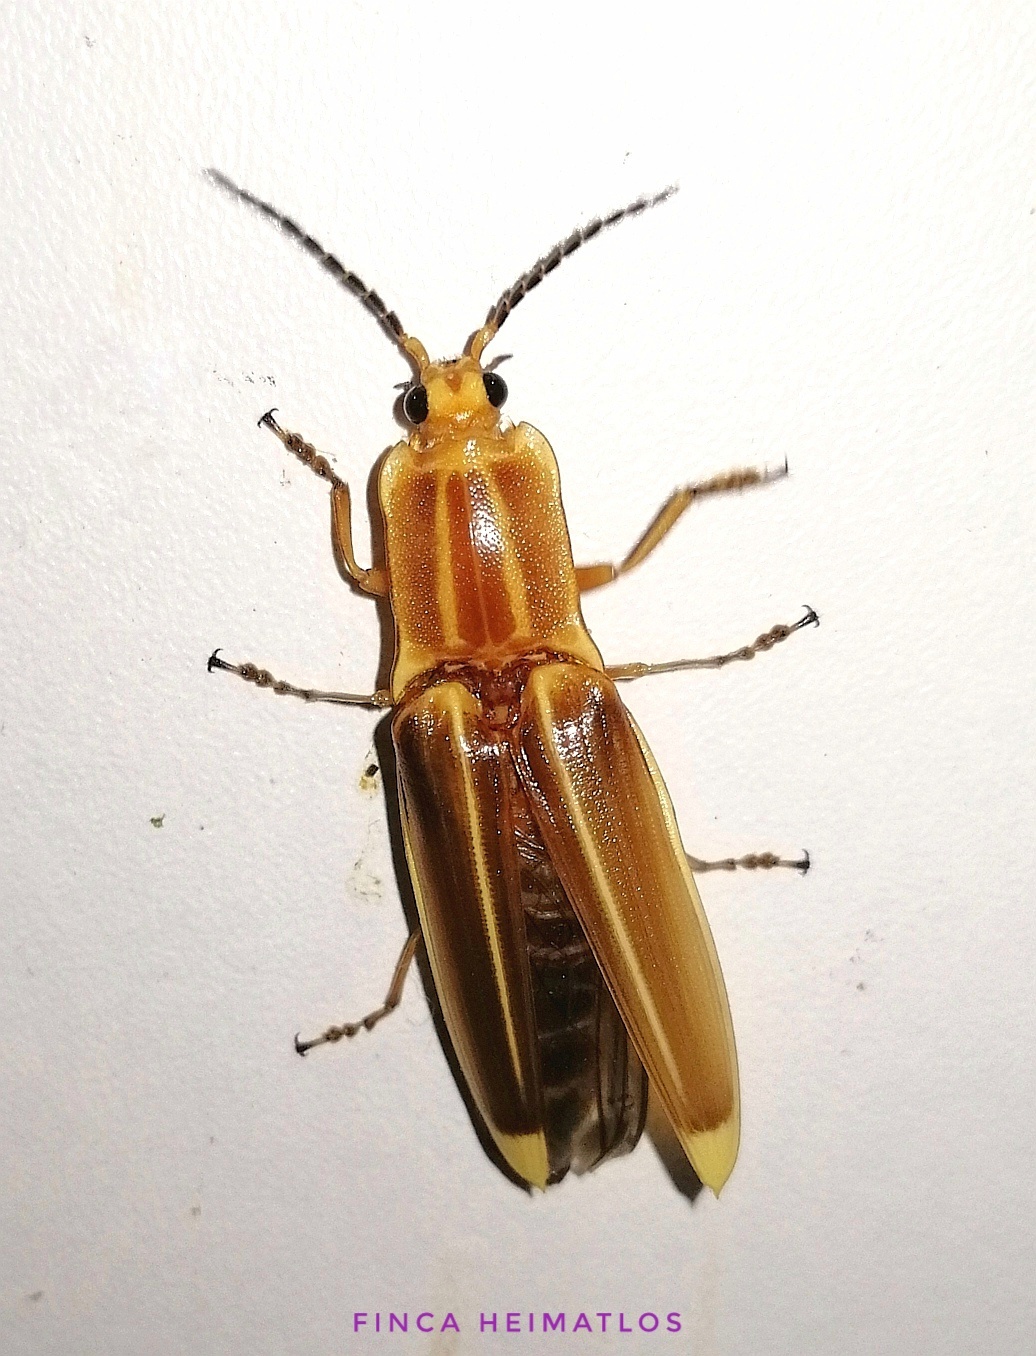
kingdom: Animalia
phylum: Arthropoda
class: Insecta
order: Coleoptera
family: Elateridae
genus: Semiotus
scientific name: Semiotus ligneus
